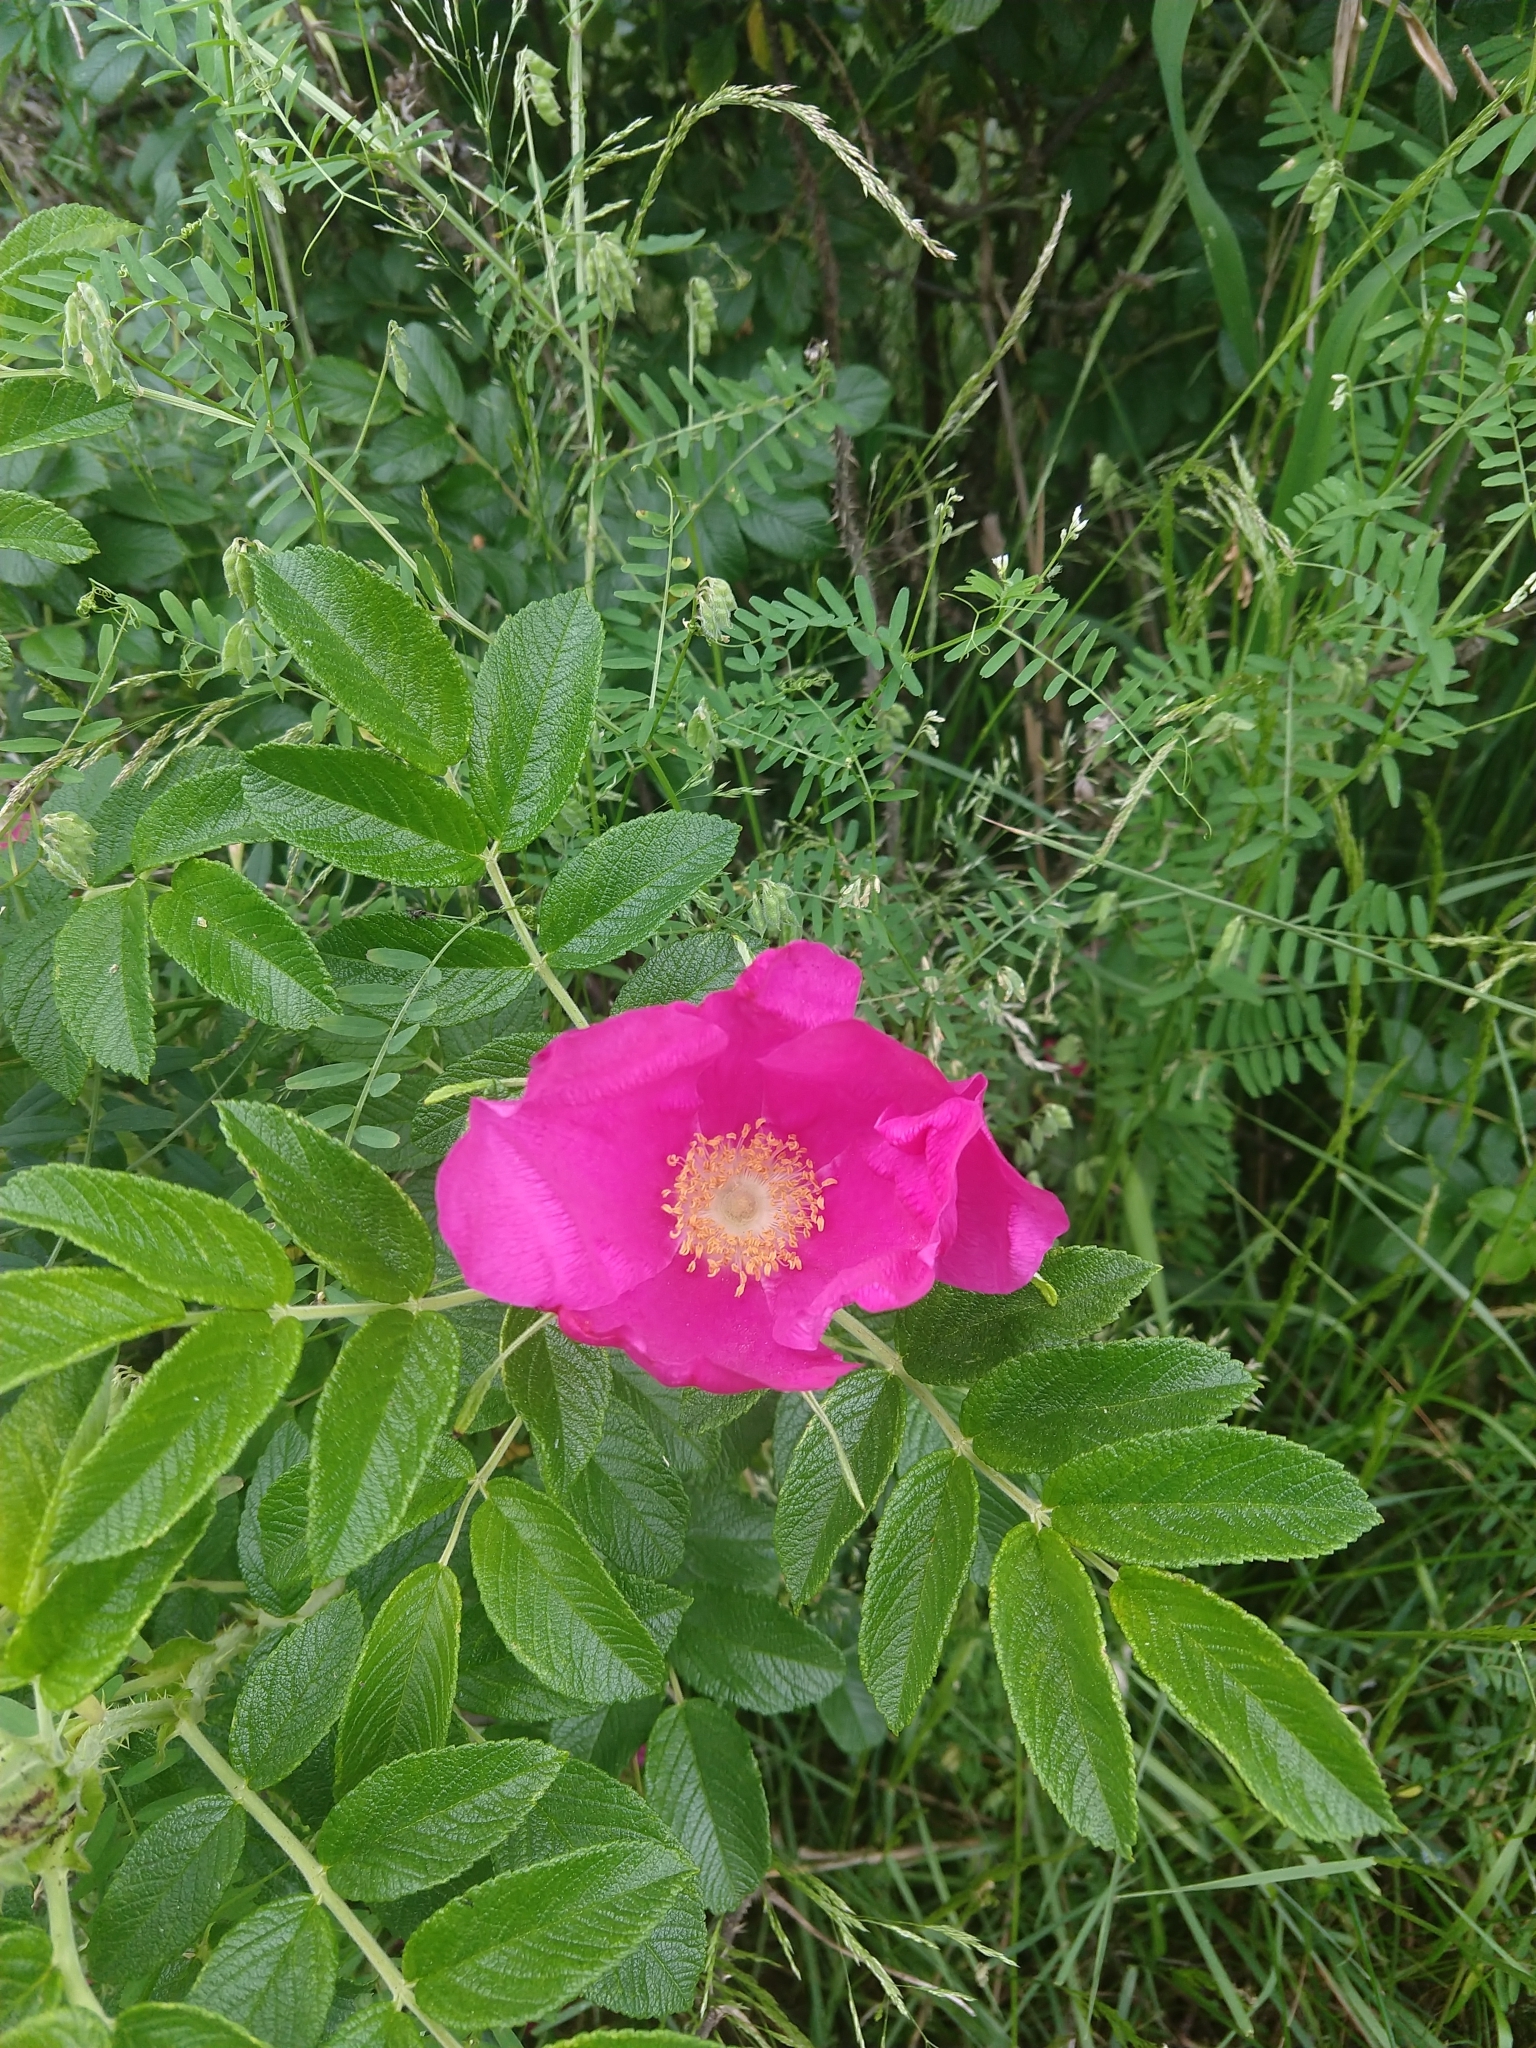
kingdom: Plantae
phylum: Tracheophyta
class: Magnoliopsida
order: Rosales
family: Rosaceae
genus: Rosa
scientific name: Rosa rugosa
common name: Japanese rose
